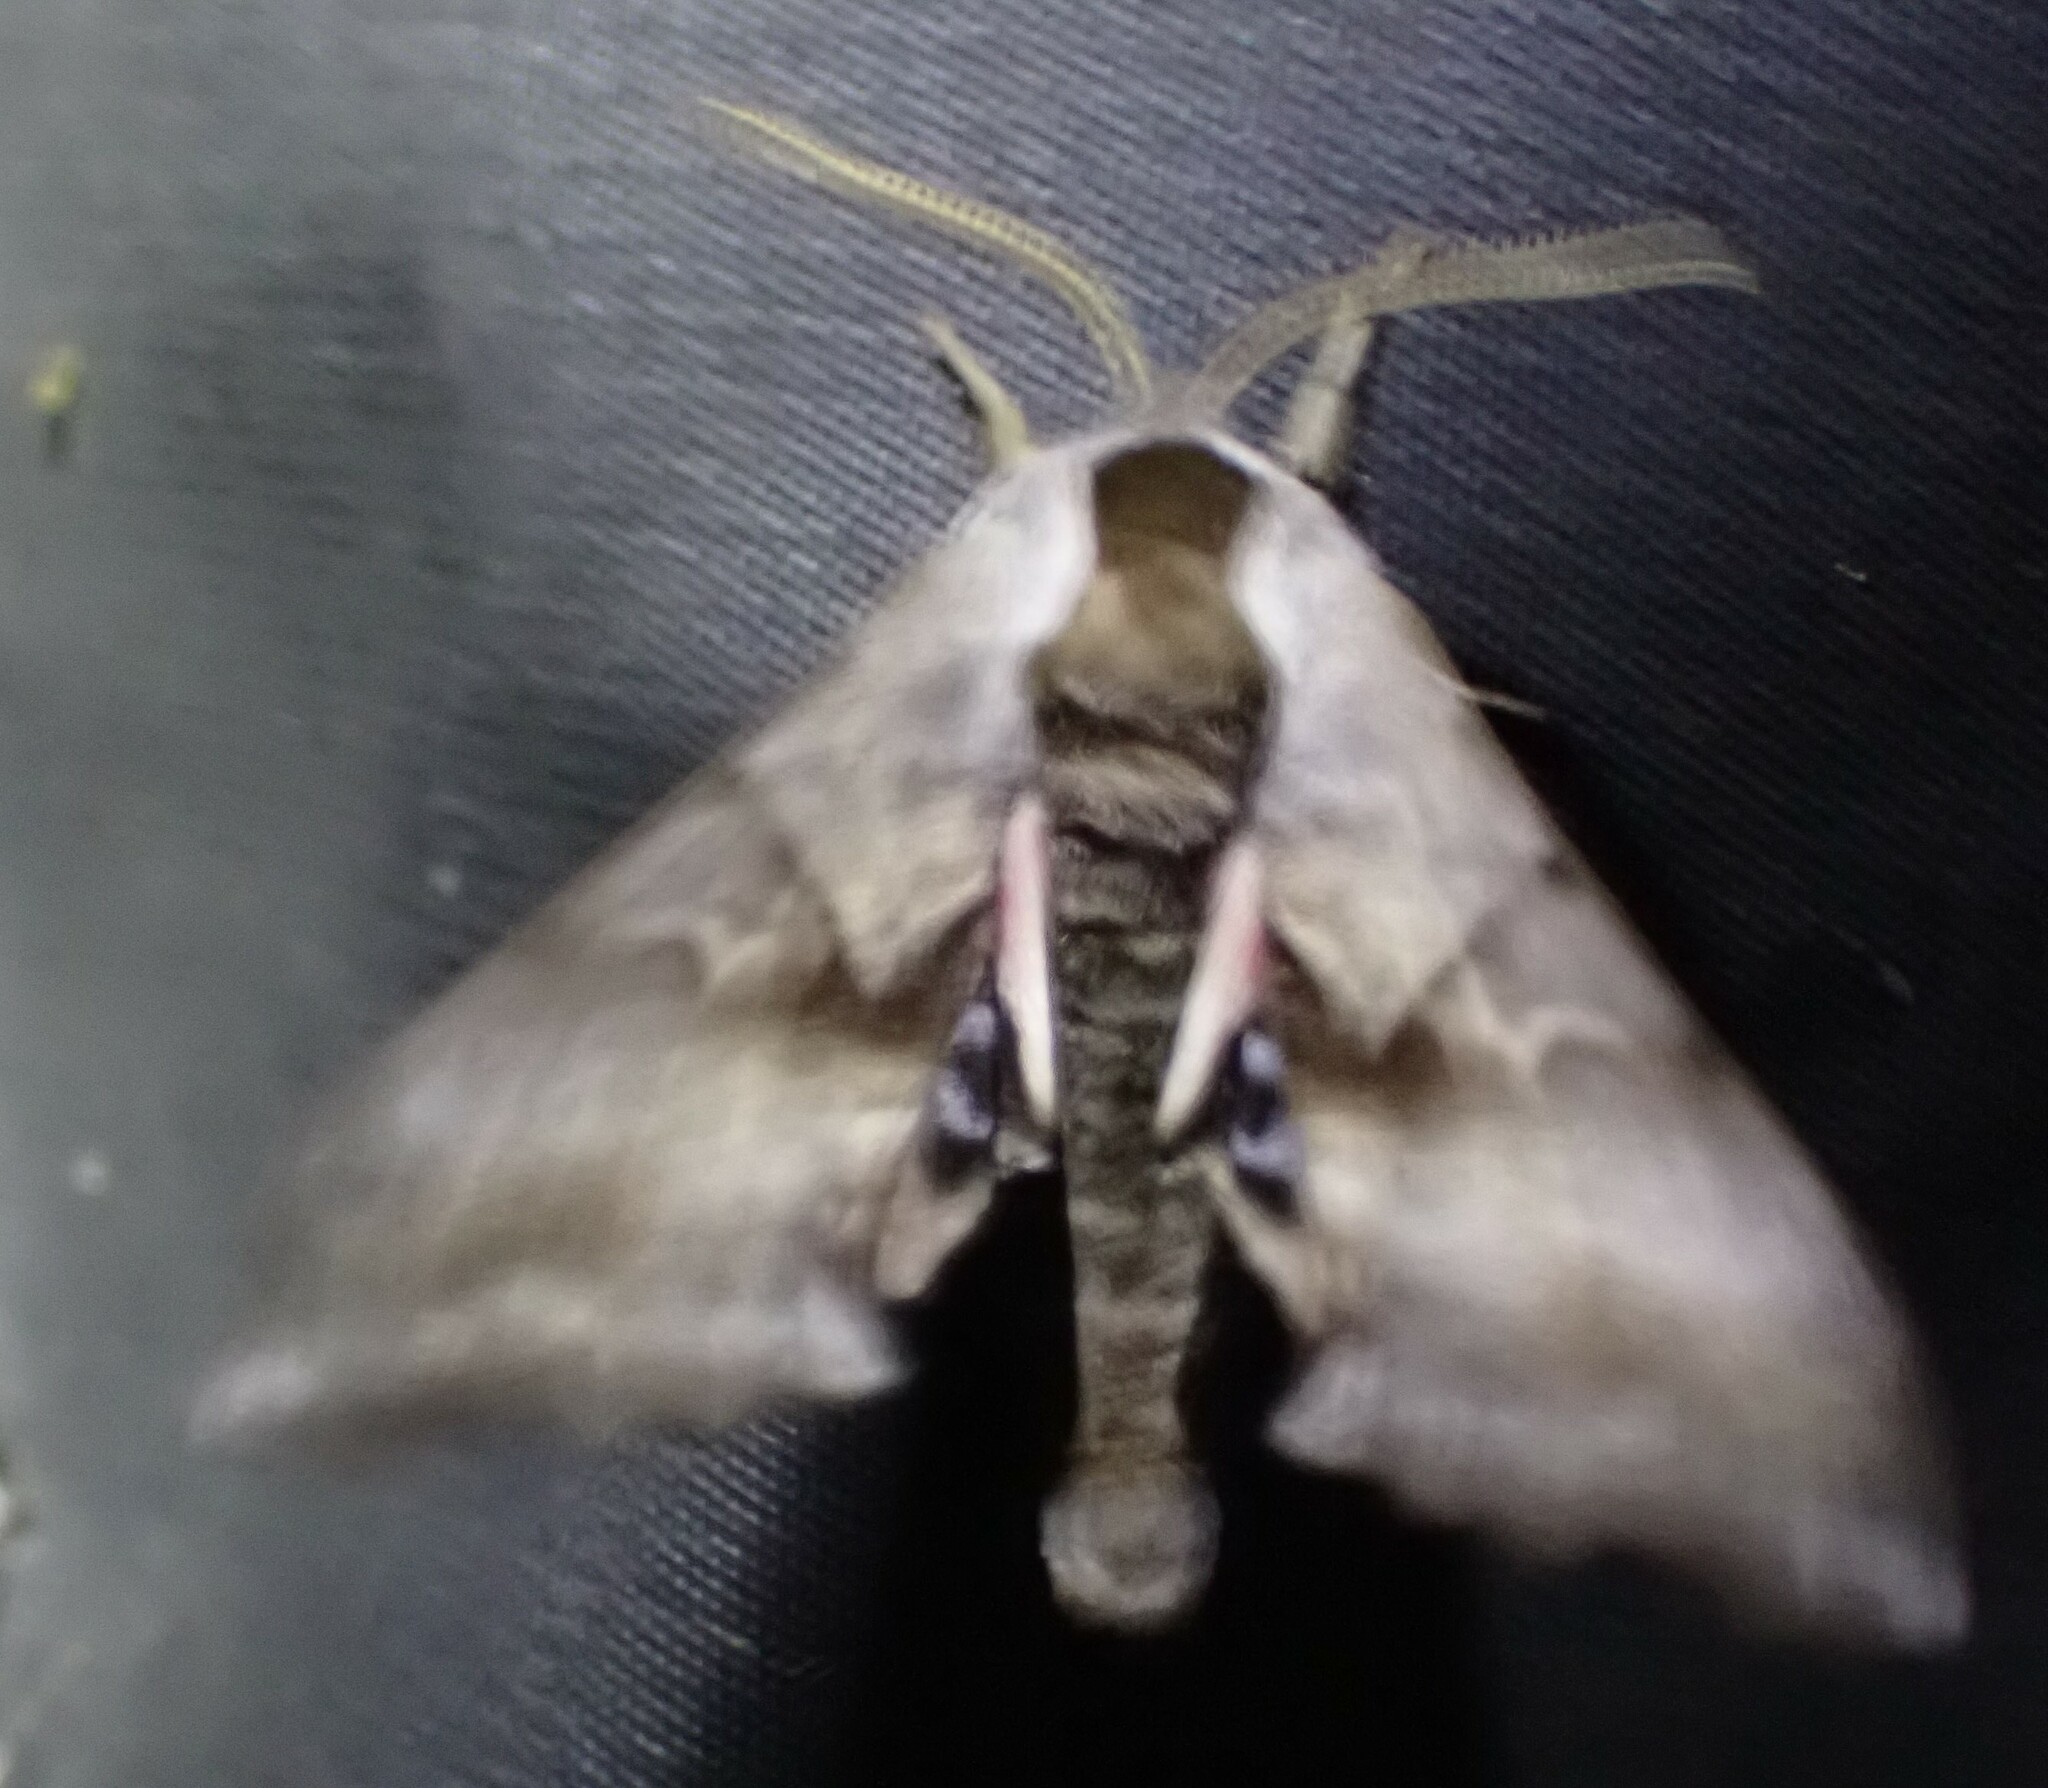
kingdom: Animalia
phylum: Arthropoda
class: Insecta
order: Lepidoptera
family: Sphingidae
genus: Smerinthus
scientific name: Smerinthus cerisyi
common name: Cerisy's sphinx moth
